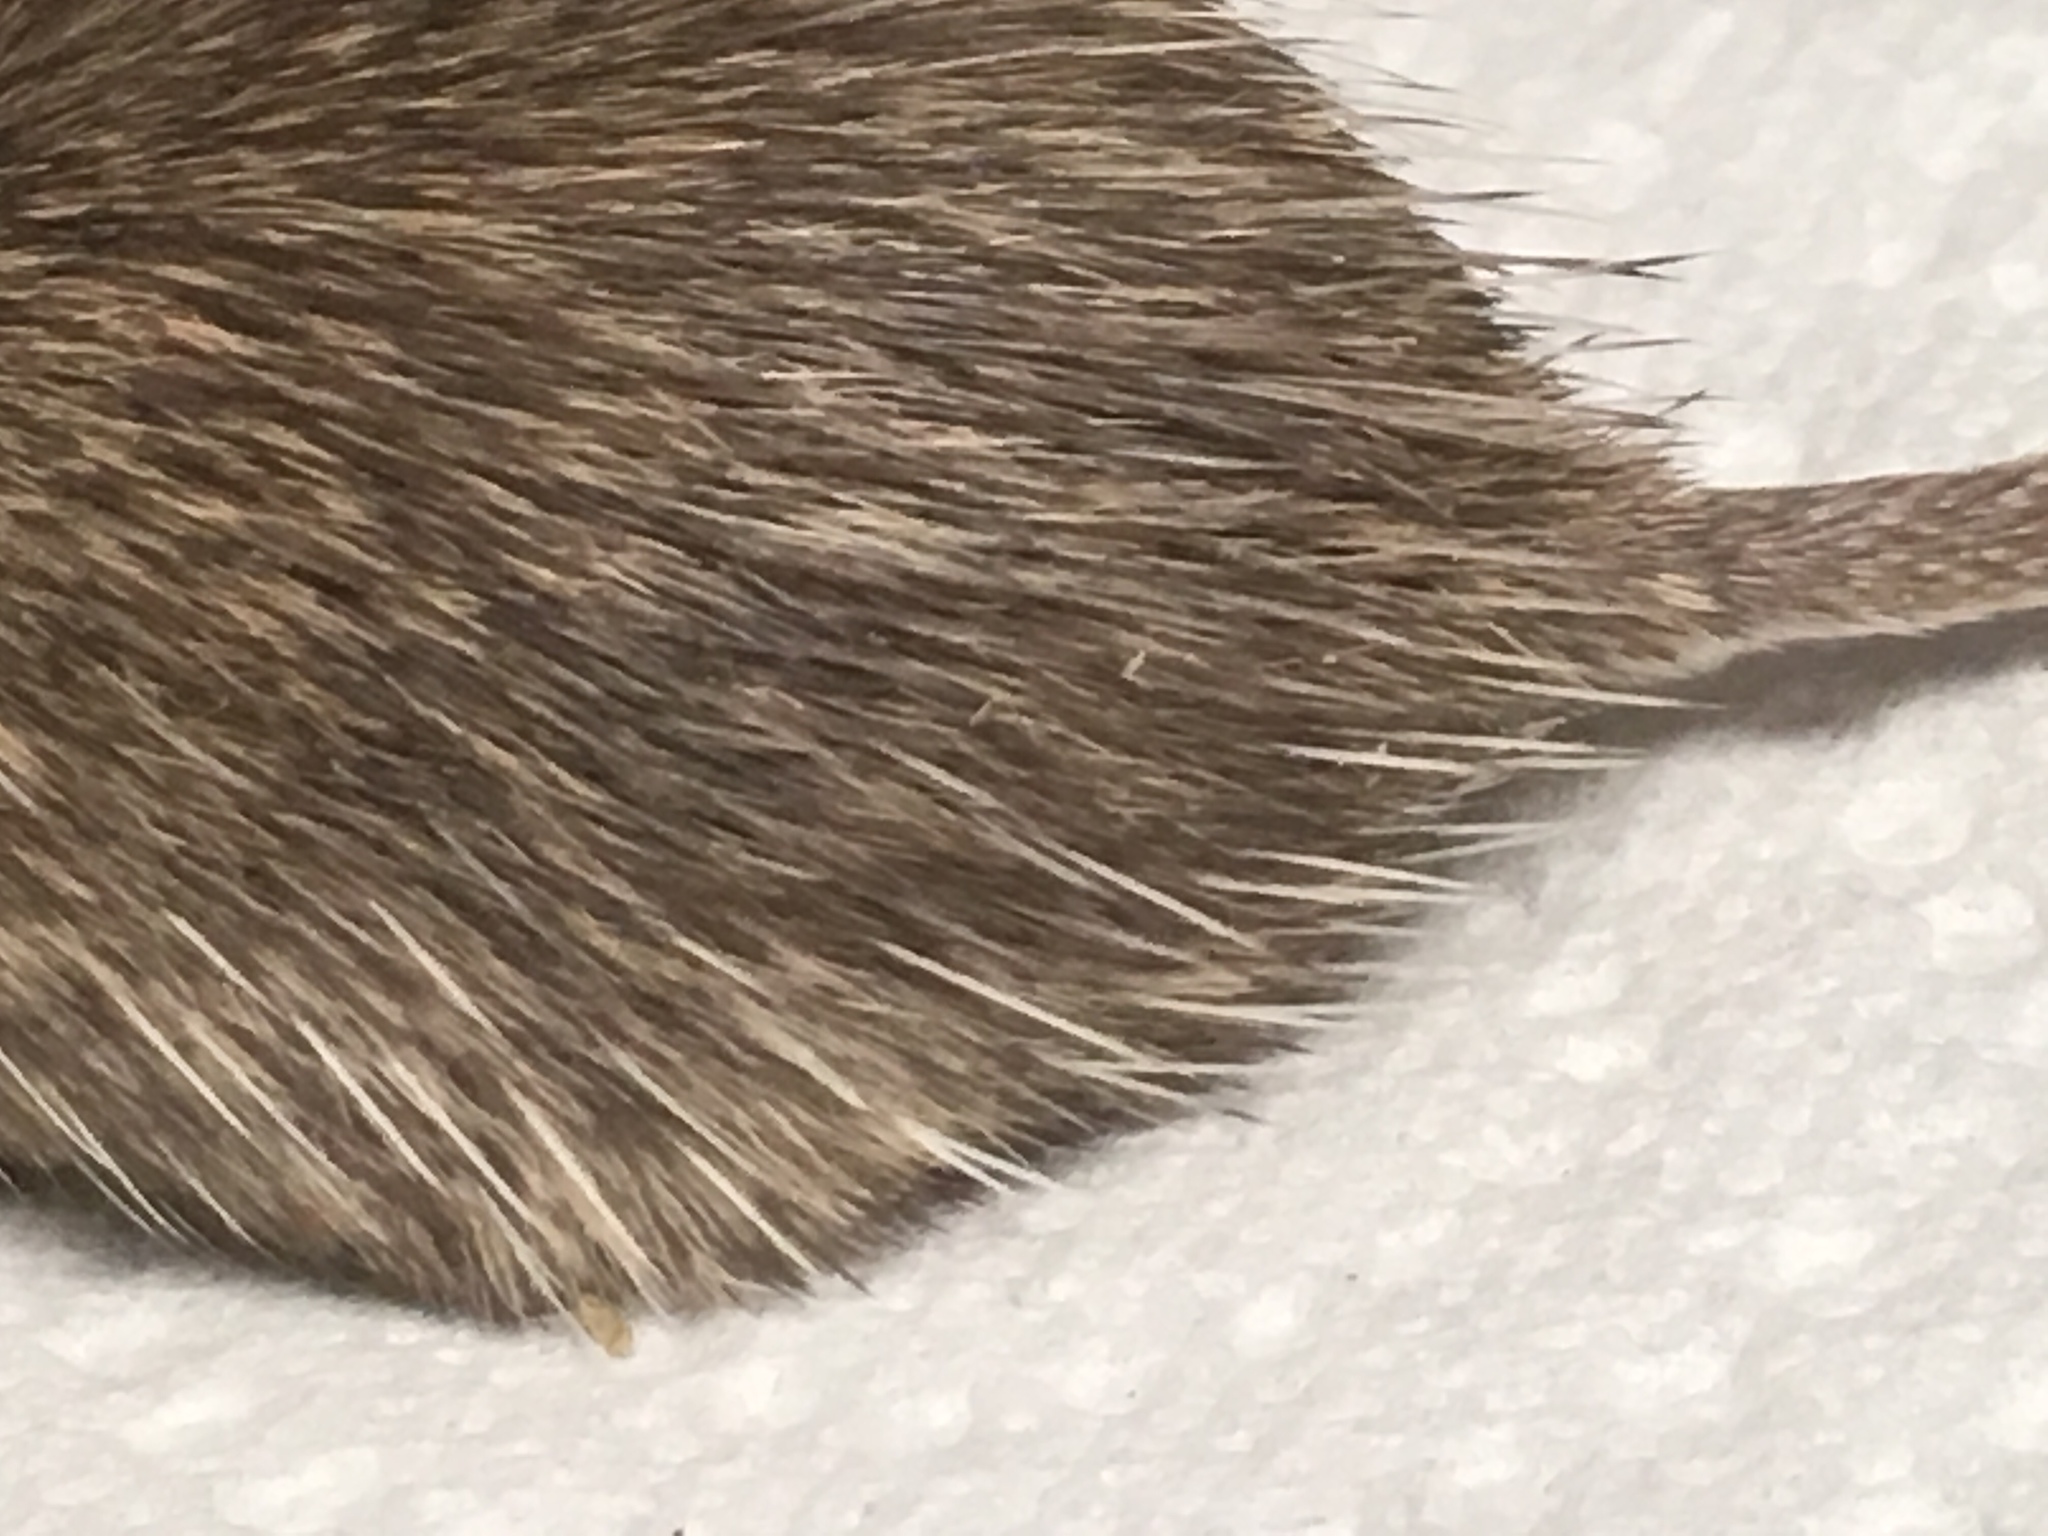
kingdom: Animalia
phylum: Chordata
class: Mammalia
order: Rodentia
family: Heteromyidae
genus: Chaetodipus
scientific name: Chaetodipus fallax
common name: San diego pocket mouse
